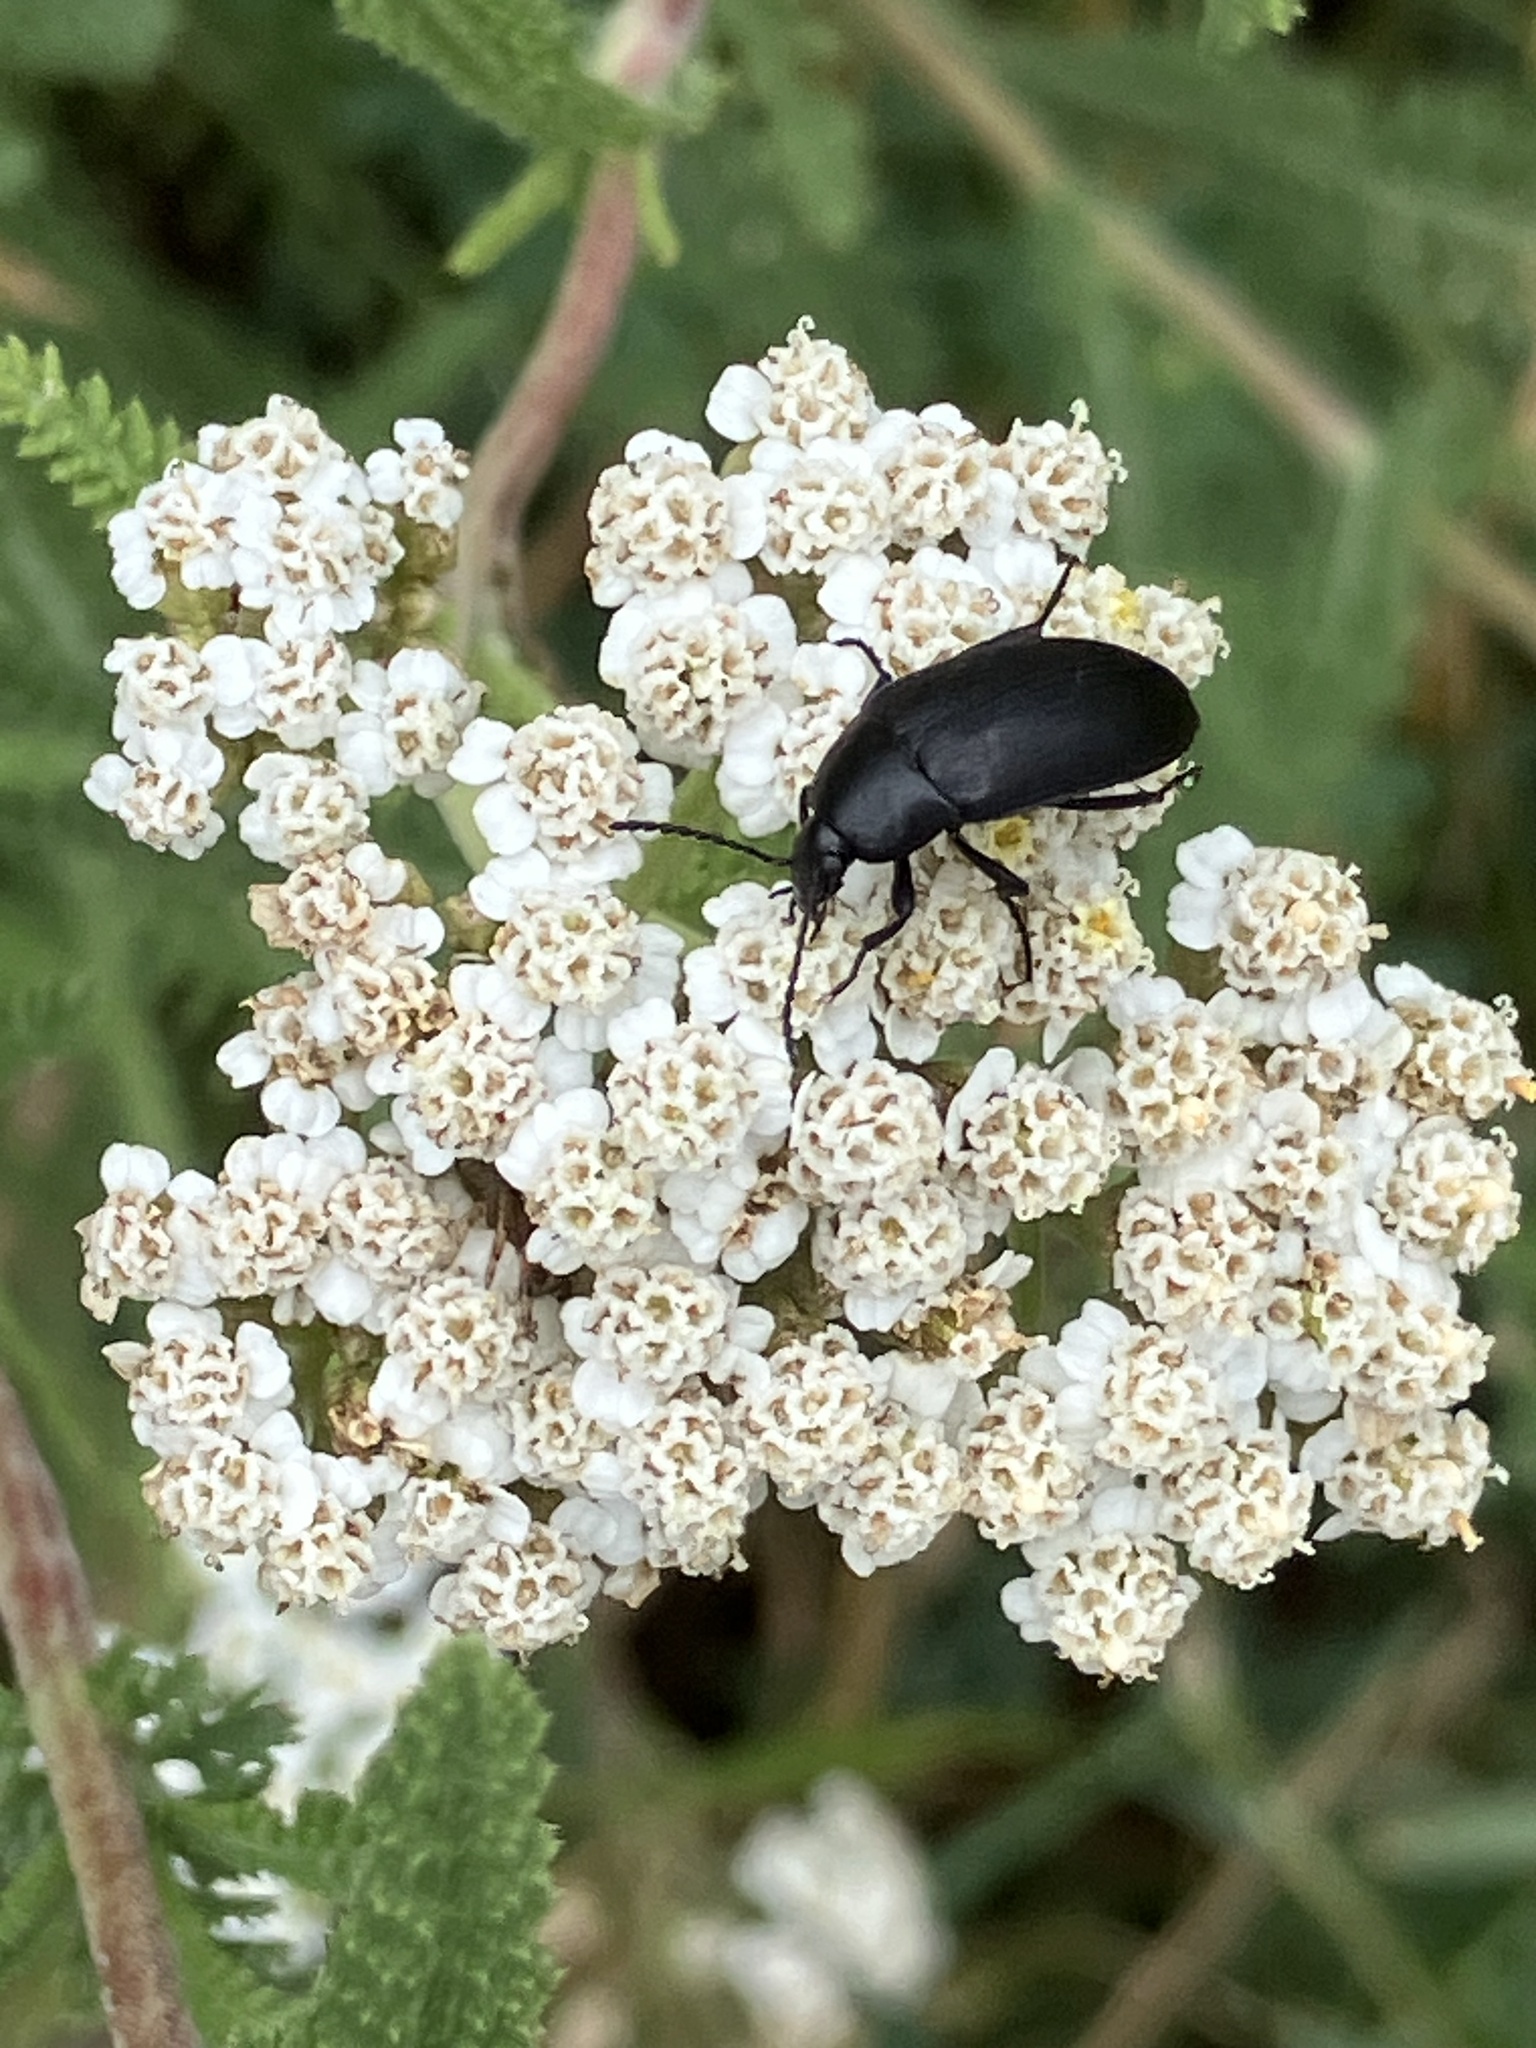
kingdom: Animalia
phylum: Arthropoda
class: Insecta
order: Coleoptera
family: Tenebrionidae
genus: Podonta
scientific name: Podonta nigrita
